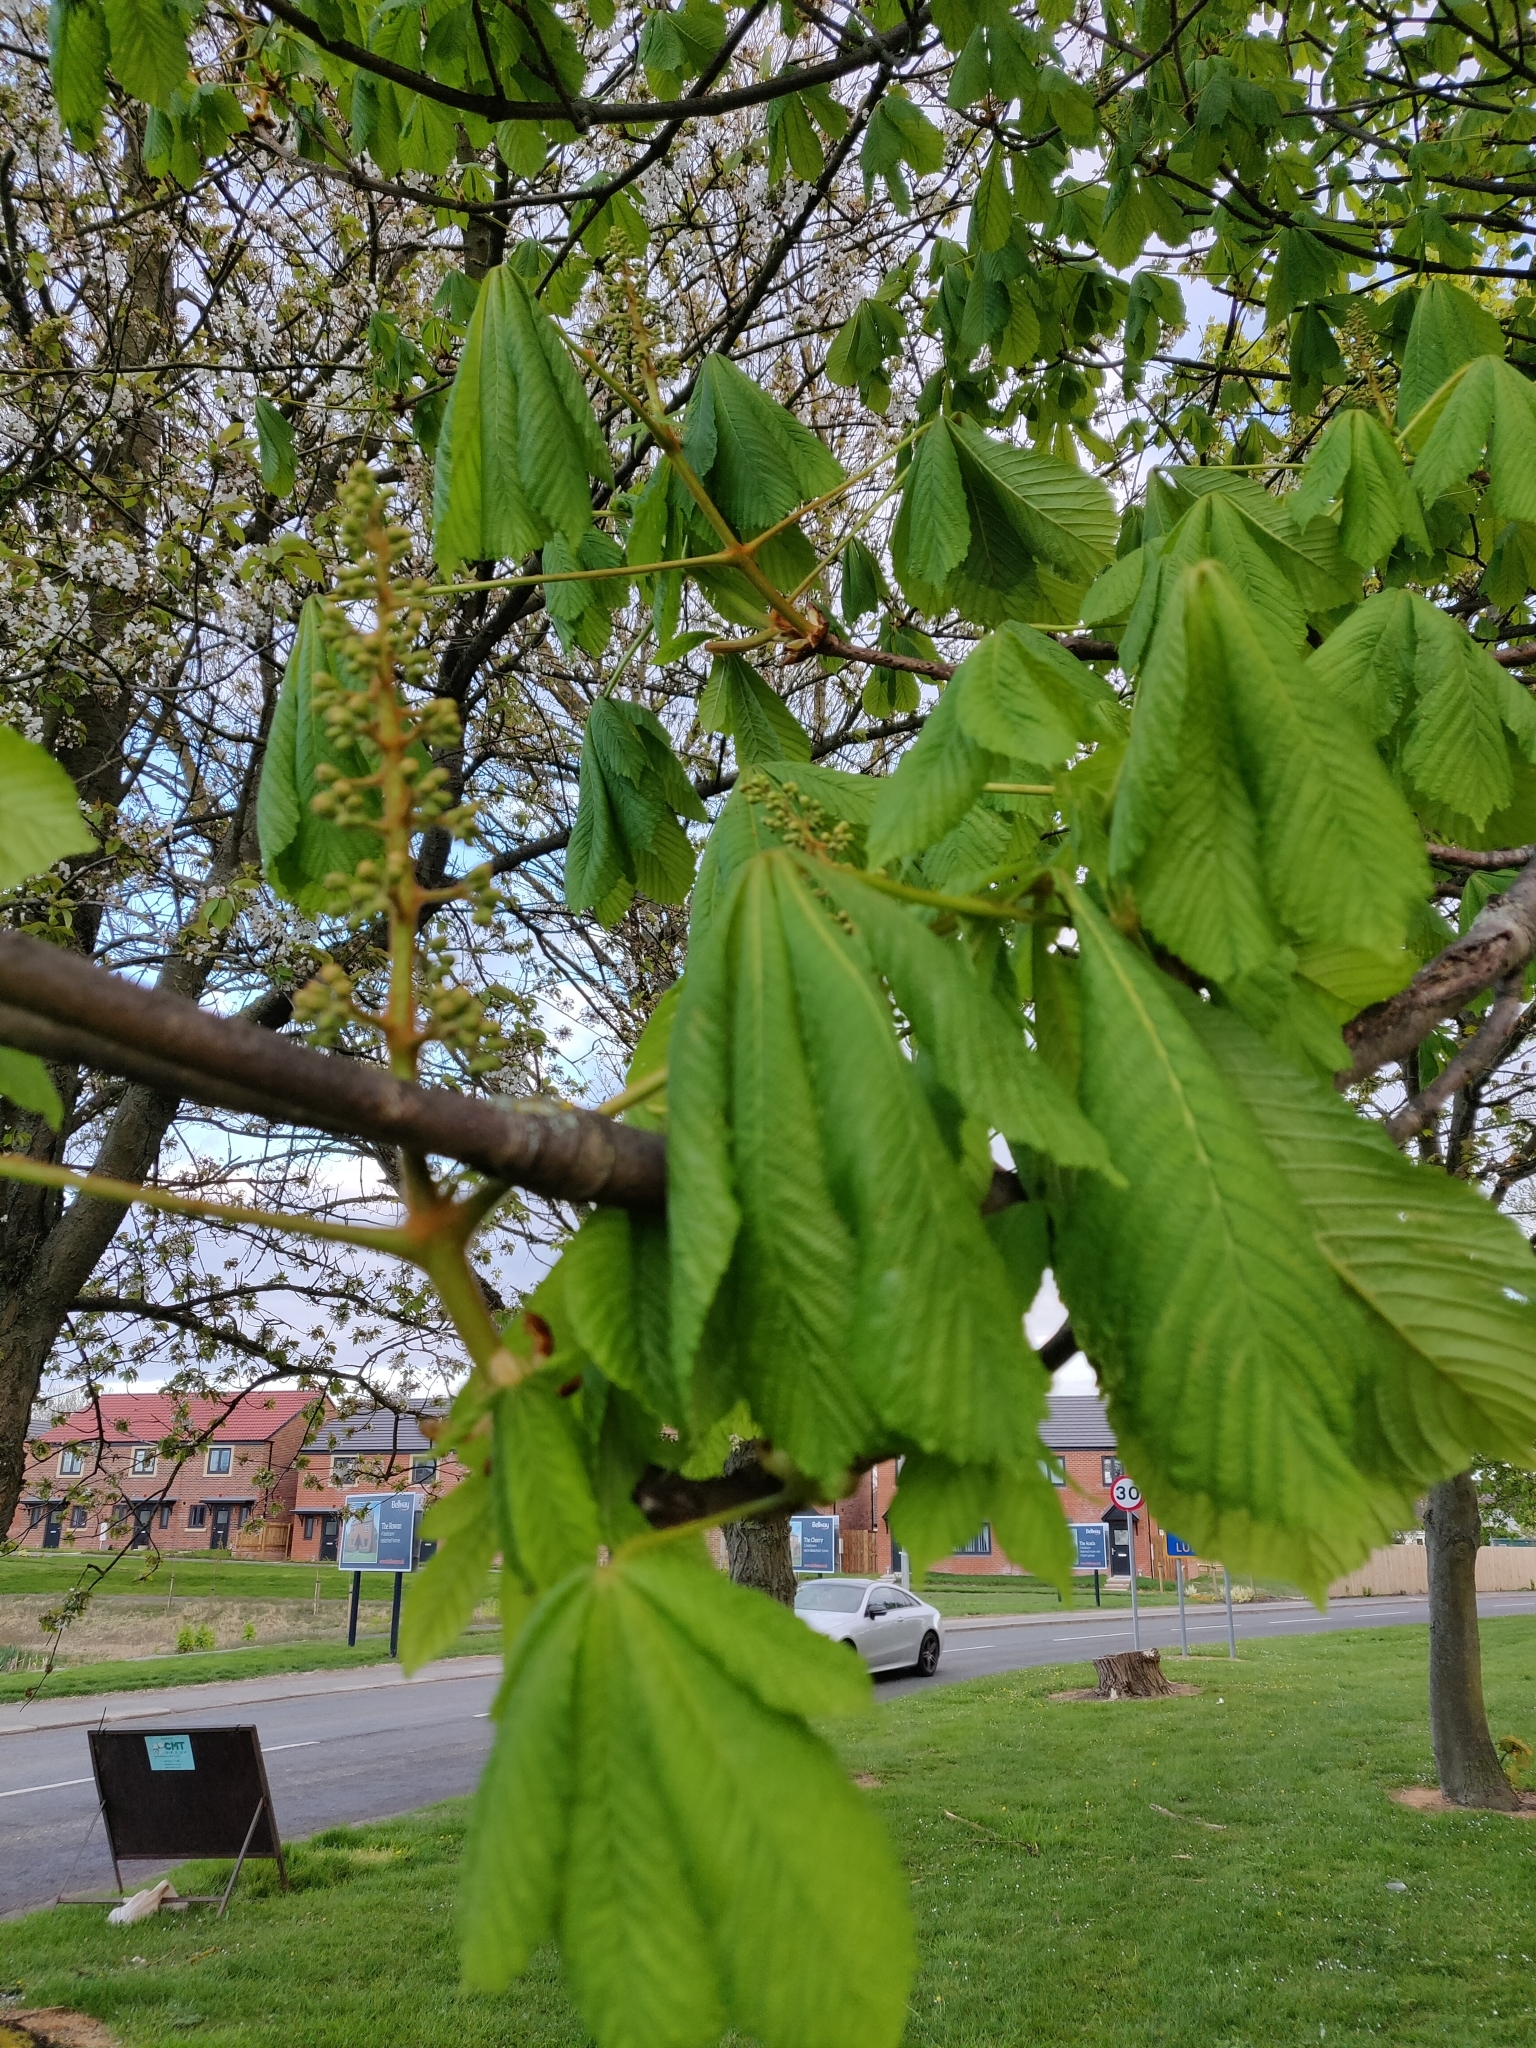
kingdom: Plantae
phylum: Tracheophyta
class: Magnoliopsida
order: Sapindales
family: Sapindaceae
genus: Aesculus
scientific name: Aesculus hippocastanum
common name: Horse-chestnut
